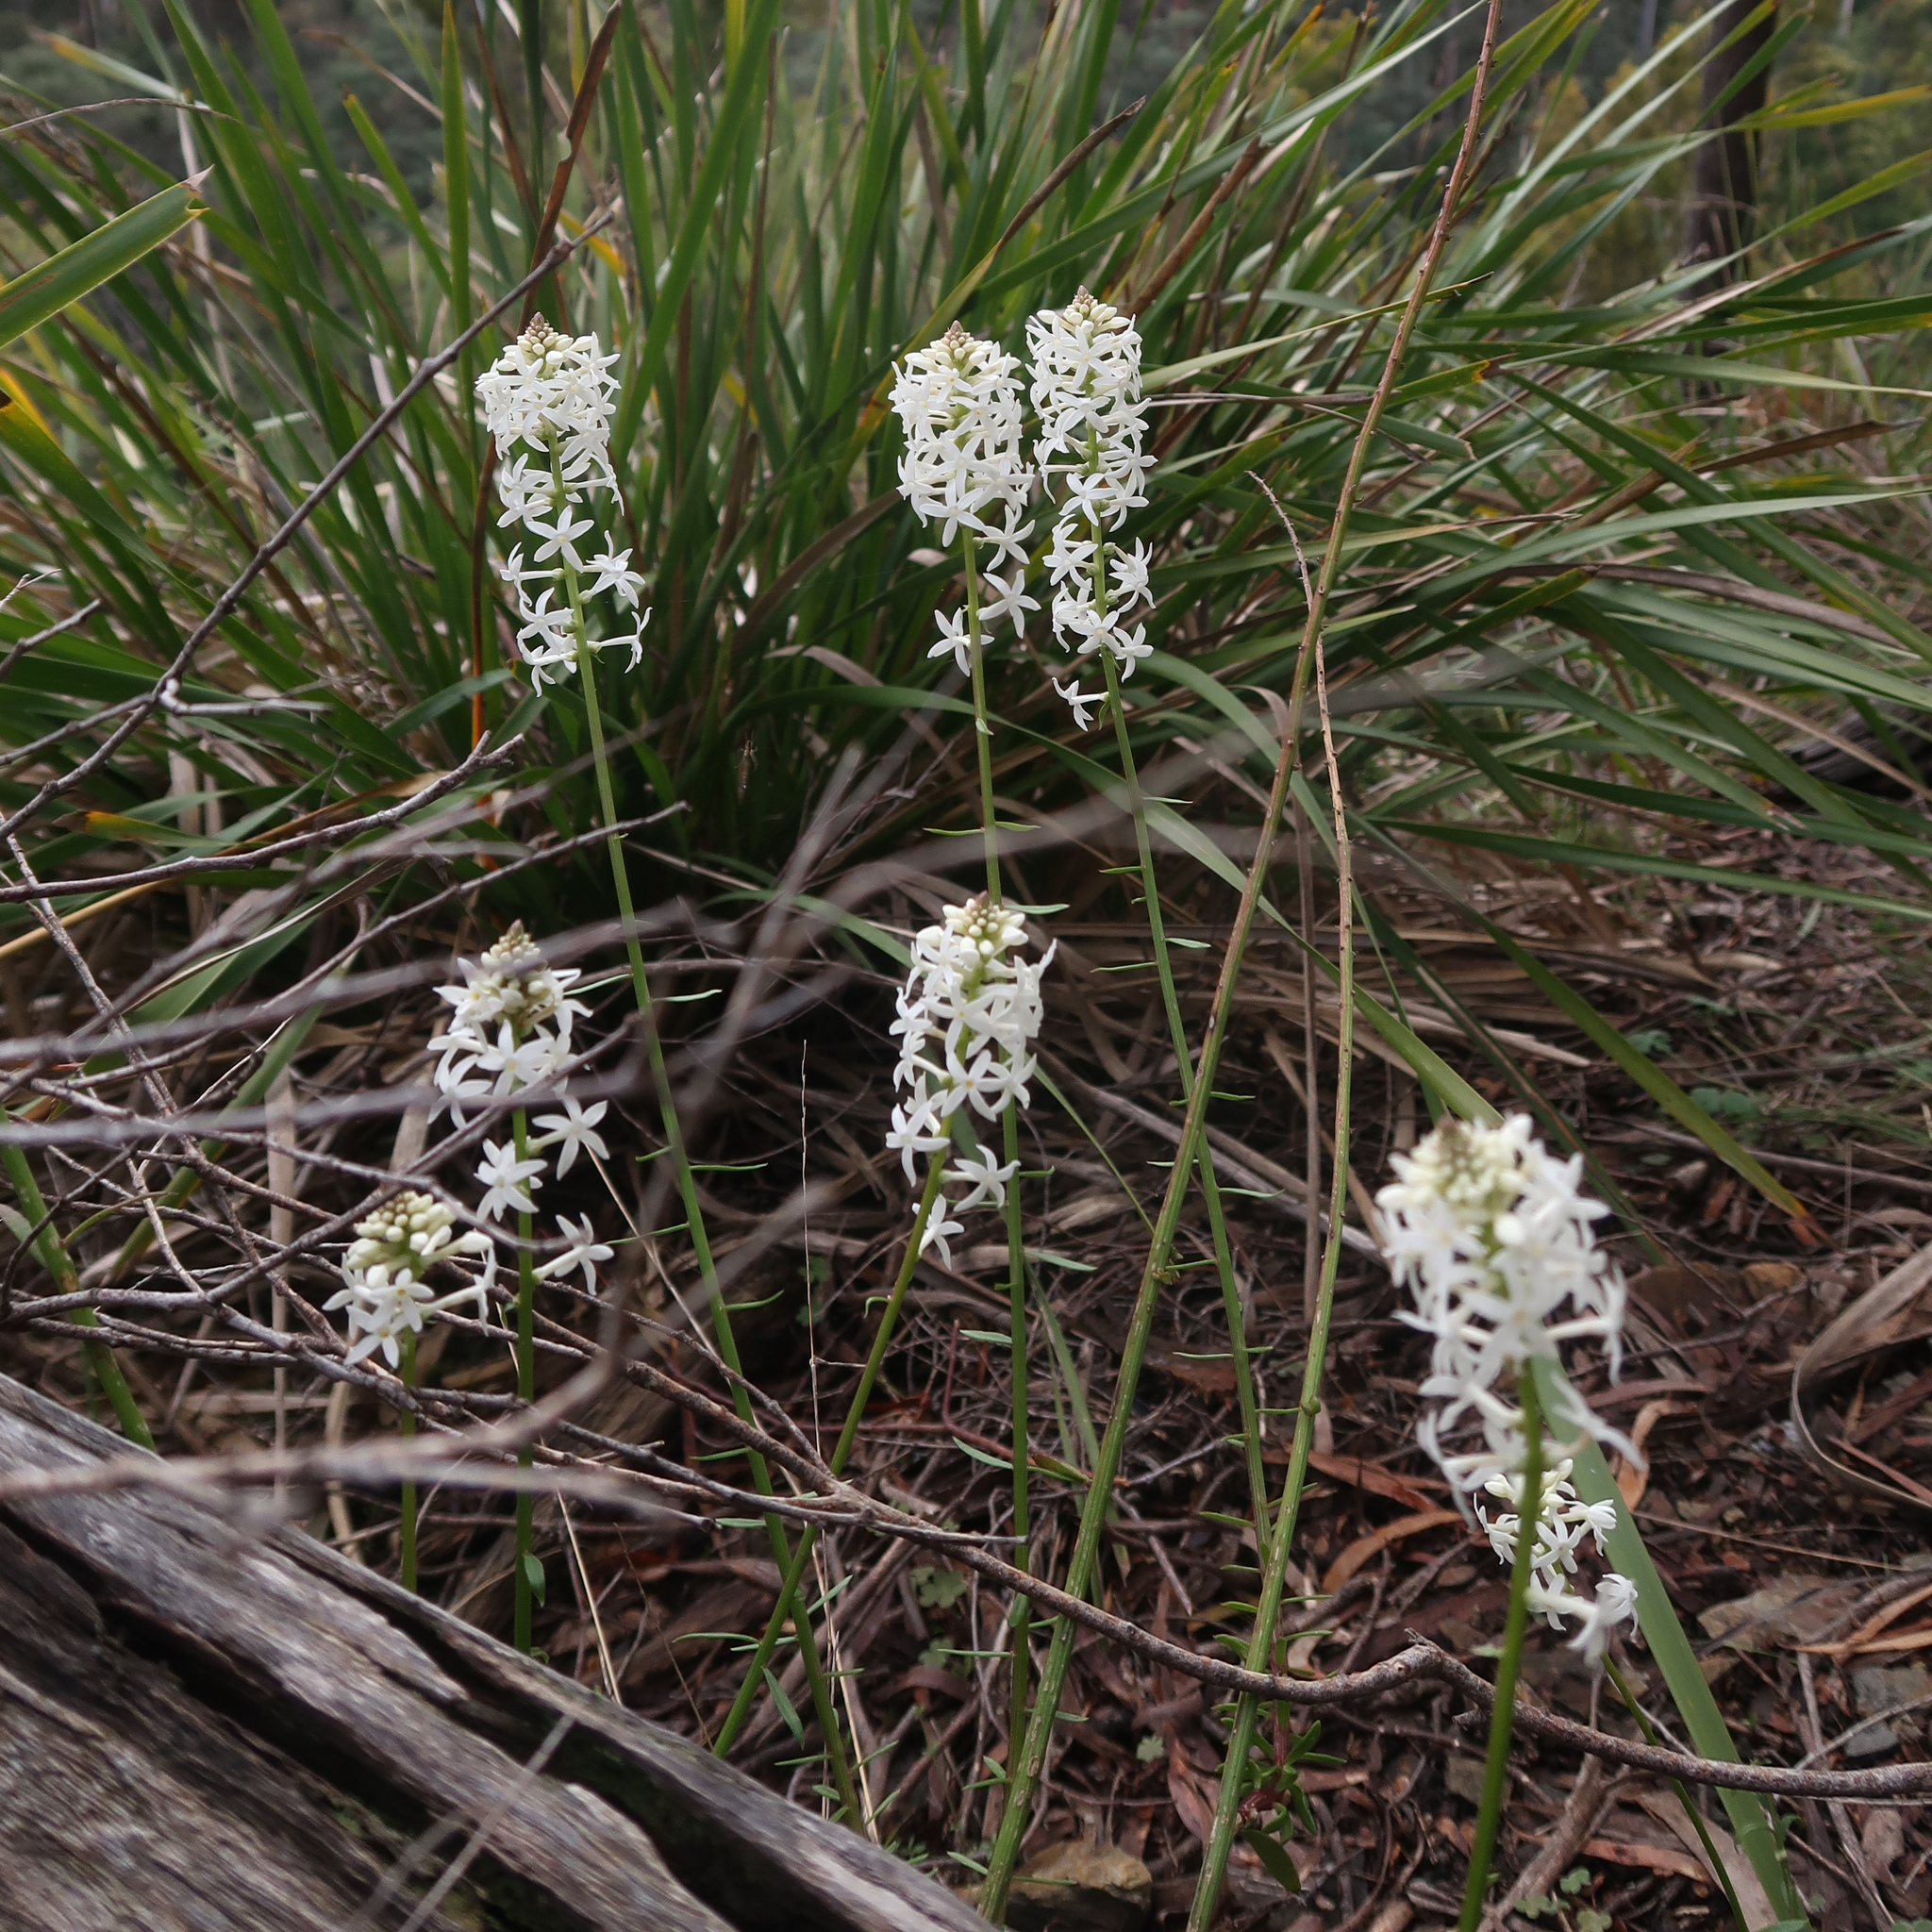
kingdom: Plantae
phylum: Tracheophyta
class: Magnoliopsida
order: Celastrales
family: Celastraceae
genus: Stackhousia
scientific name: Stackhousia monogyna
